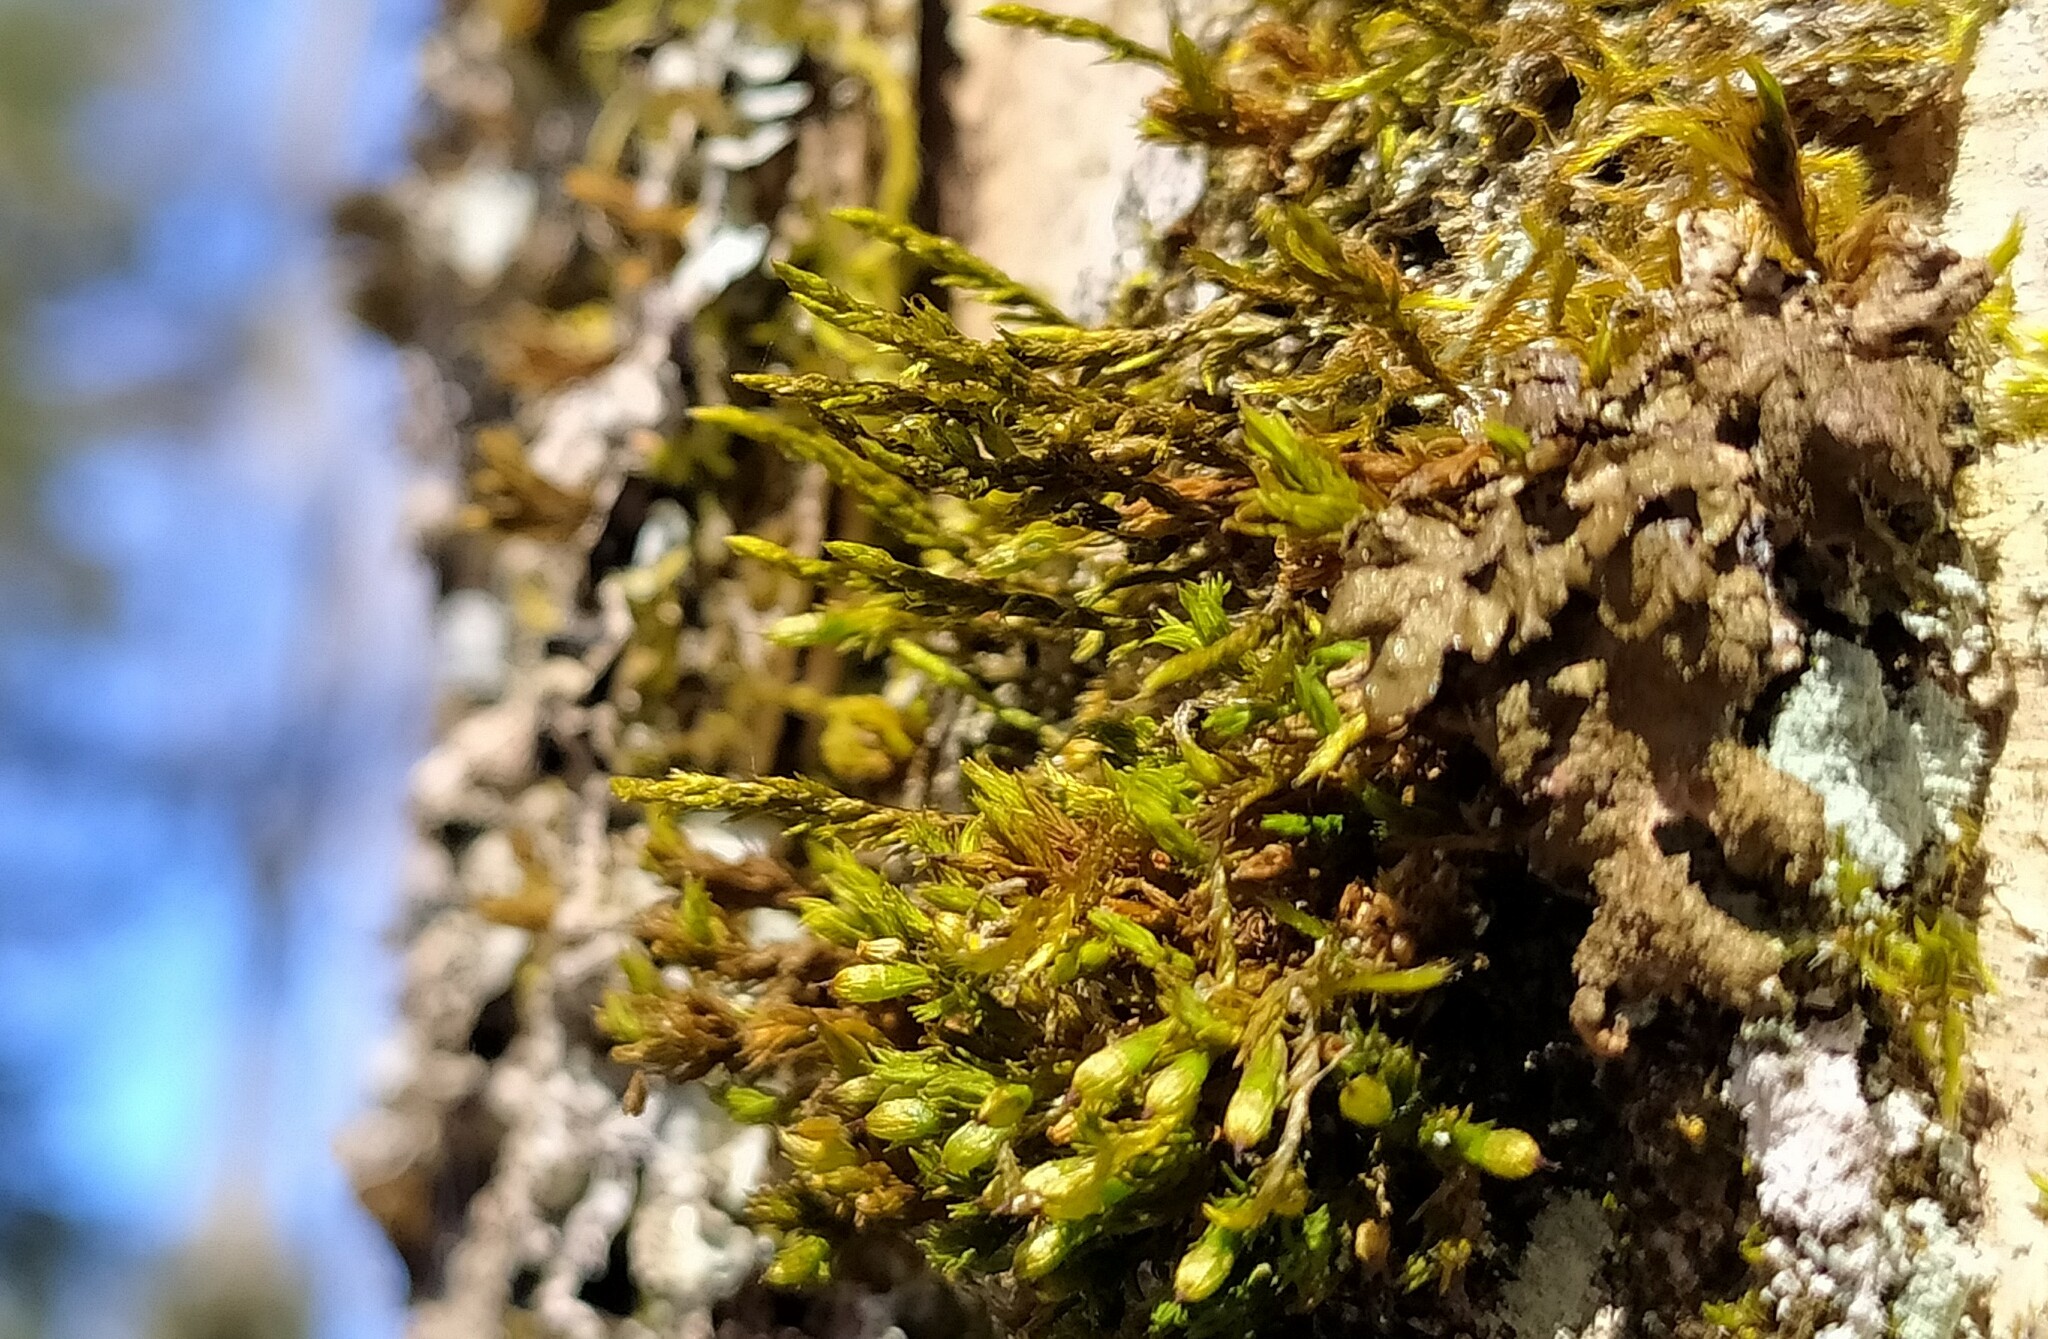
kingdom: Plantae
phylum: Bryophyta
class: Bryopsida
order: Hypnales
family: Cryphaeaceae
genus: Cryphaea
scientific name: Cryphaea heteromalla
